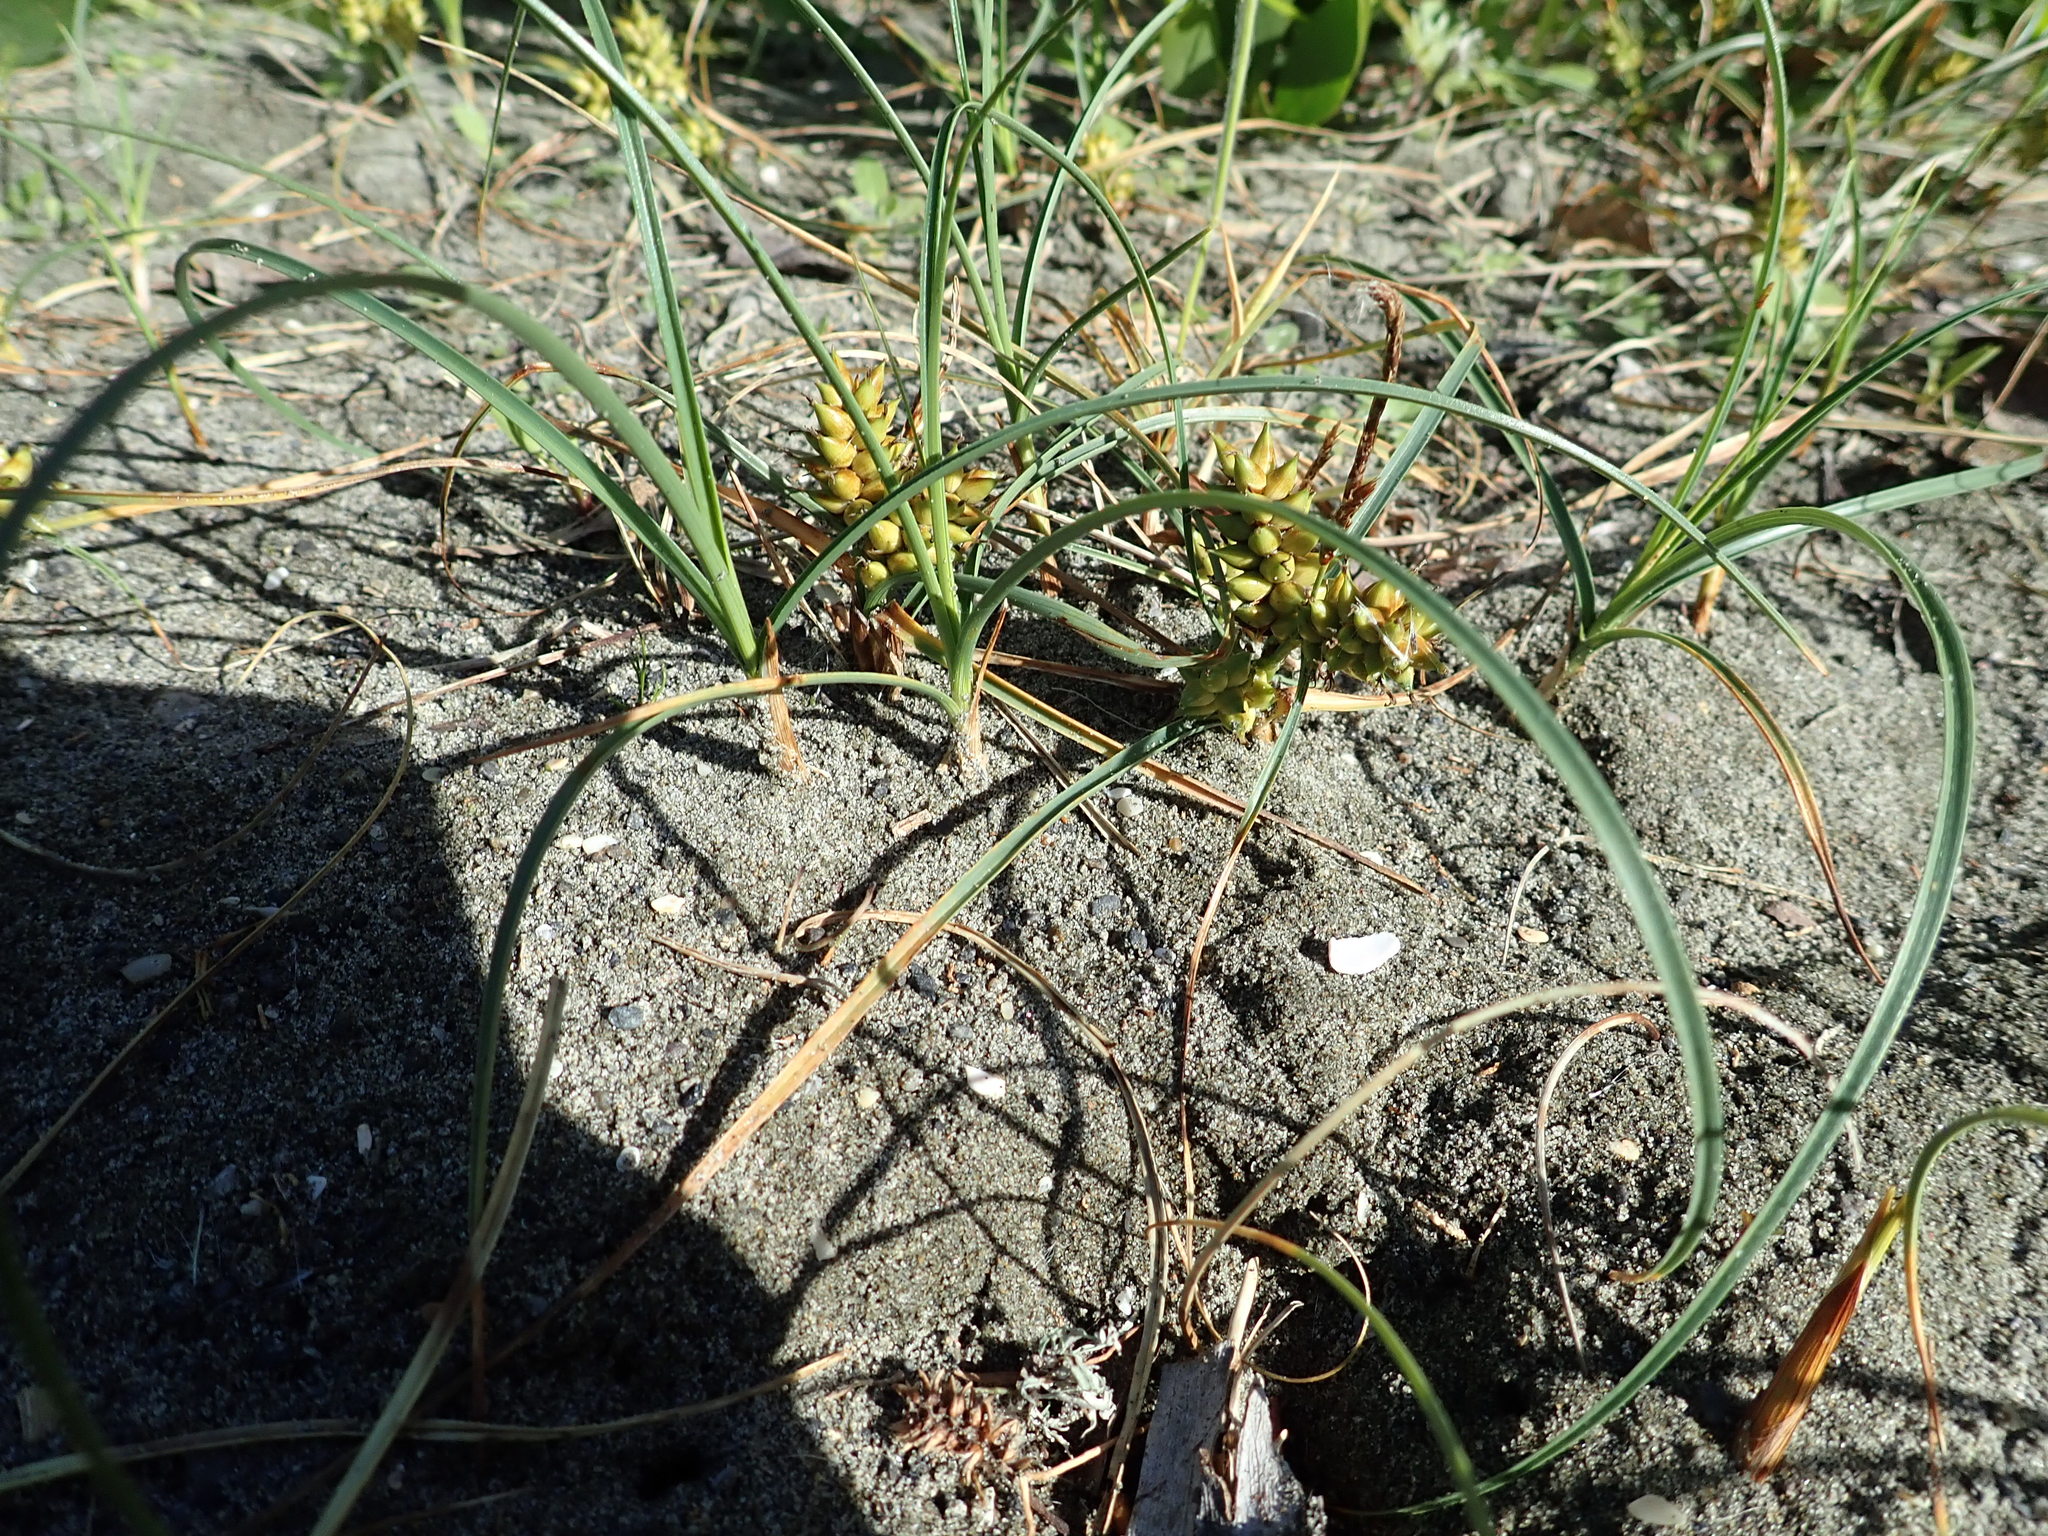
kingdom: Plantae
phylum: Tracheophyta
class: Liliopsida
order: Poales
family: Cyperaceae
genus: Carex
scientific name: Carex pumila
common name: Dwarf sedge
